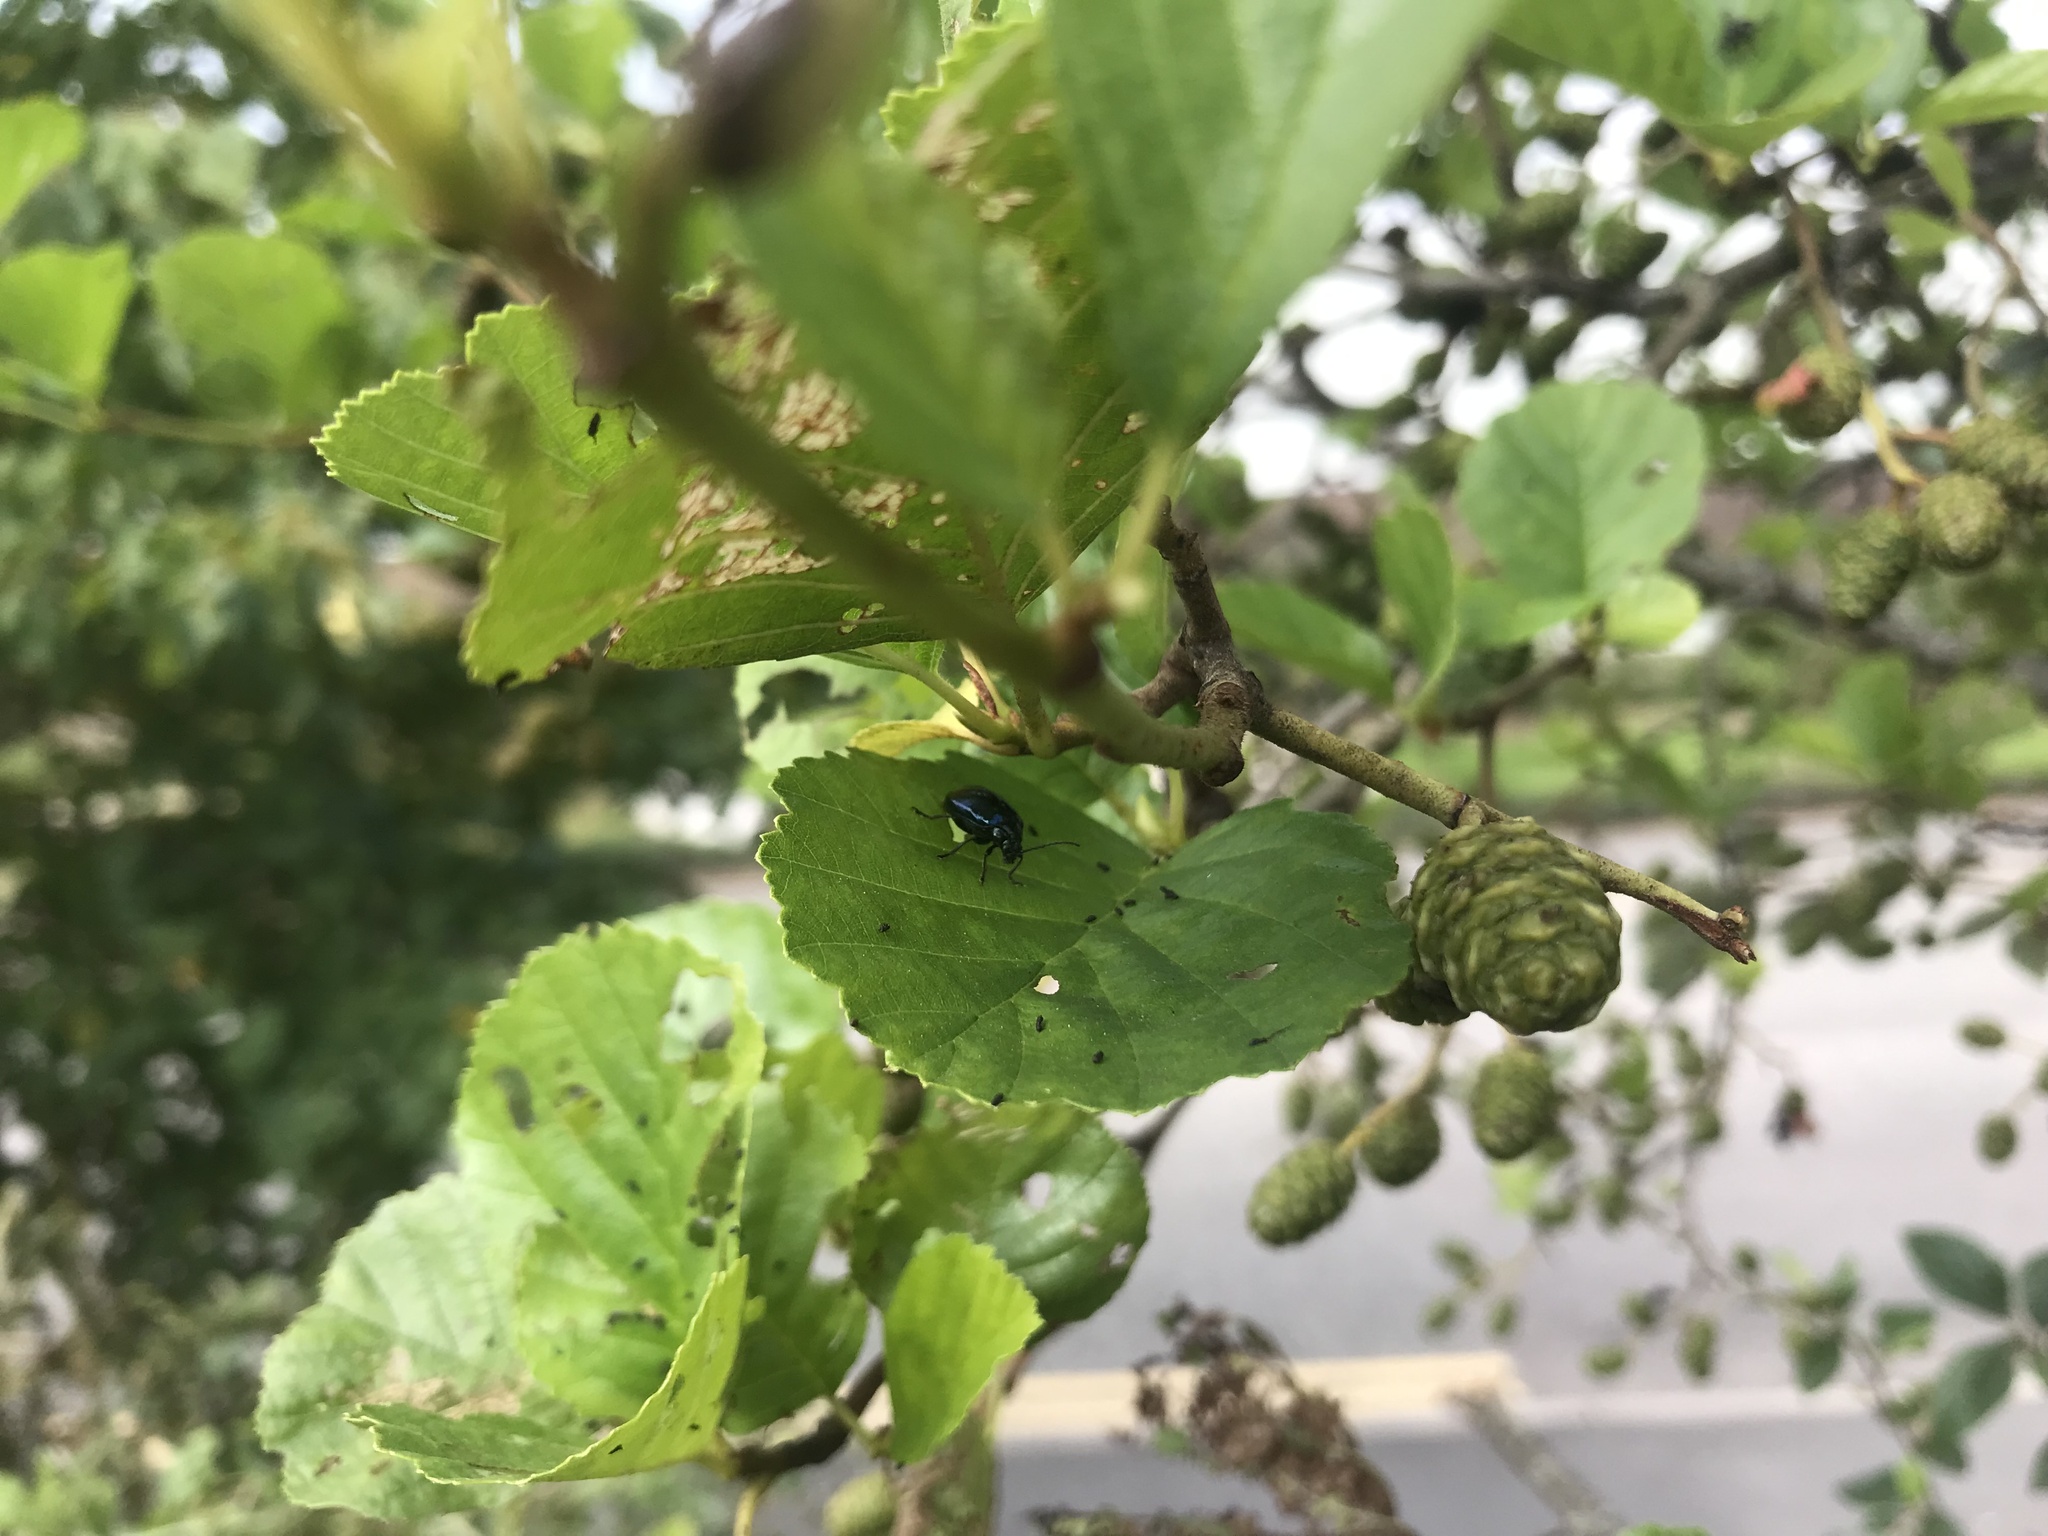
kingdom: Animalia
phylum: Arthropoda
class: Insecta
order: Coleoptera
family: Chrysomelidae
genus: Agelastica
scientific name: Agelastica alni
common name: Alder leaf beetle
